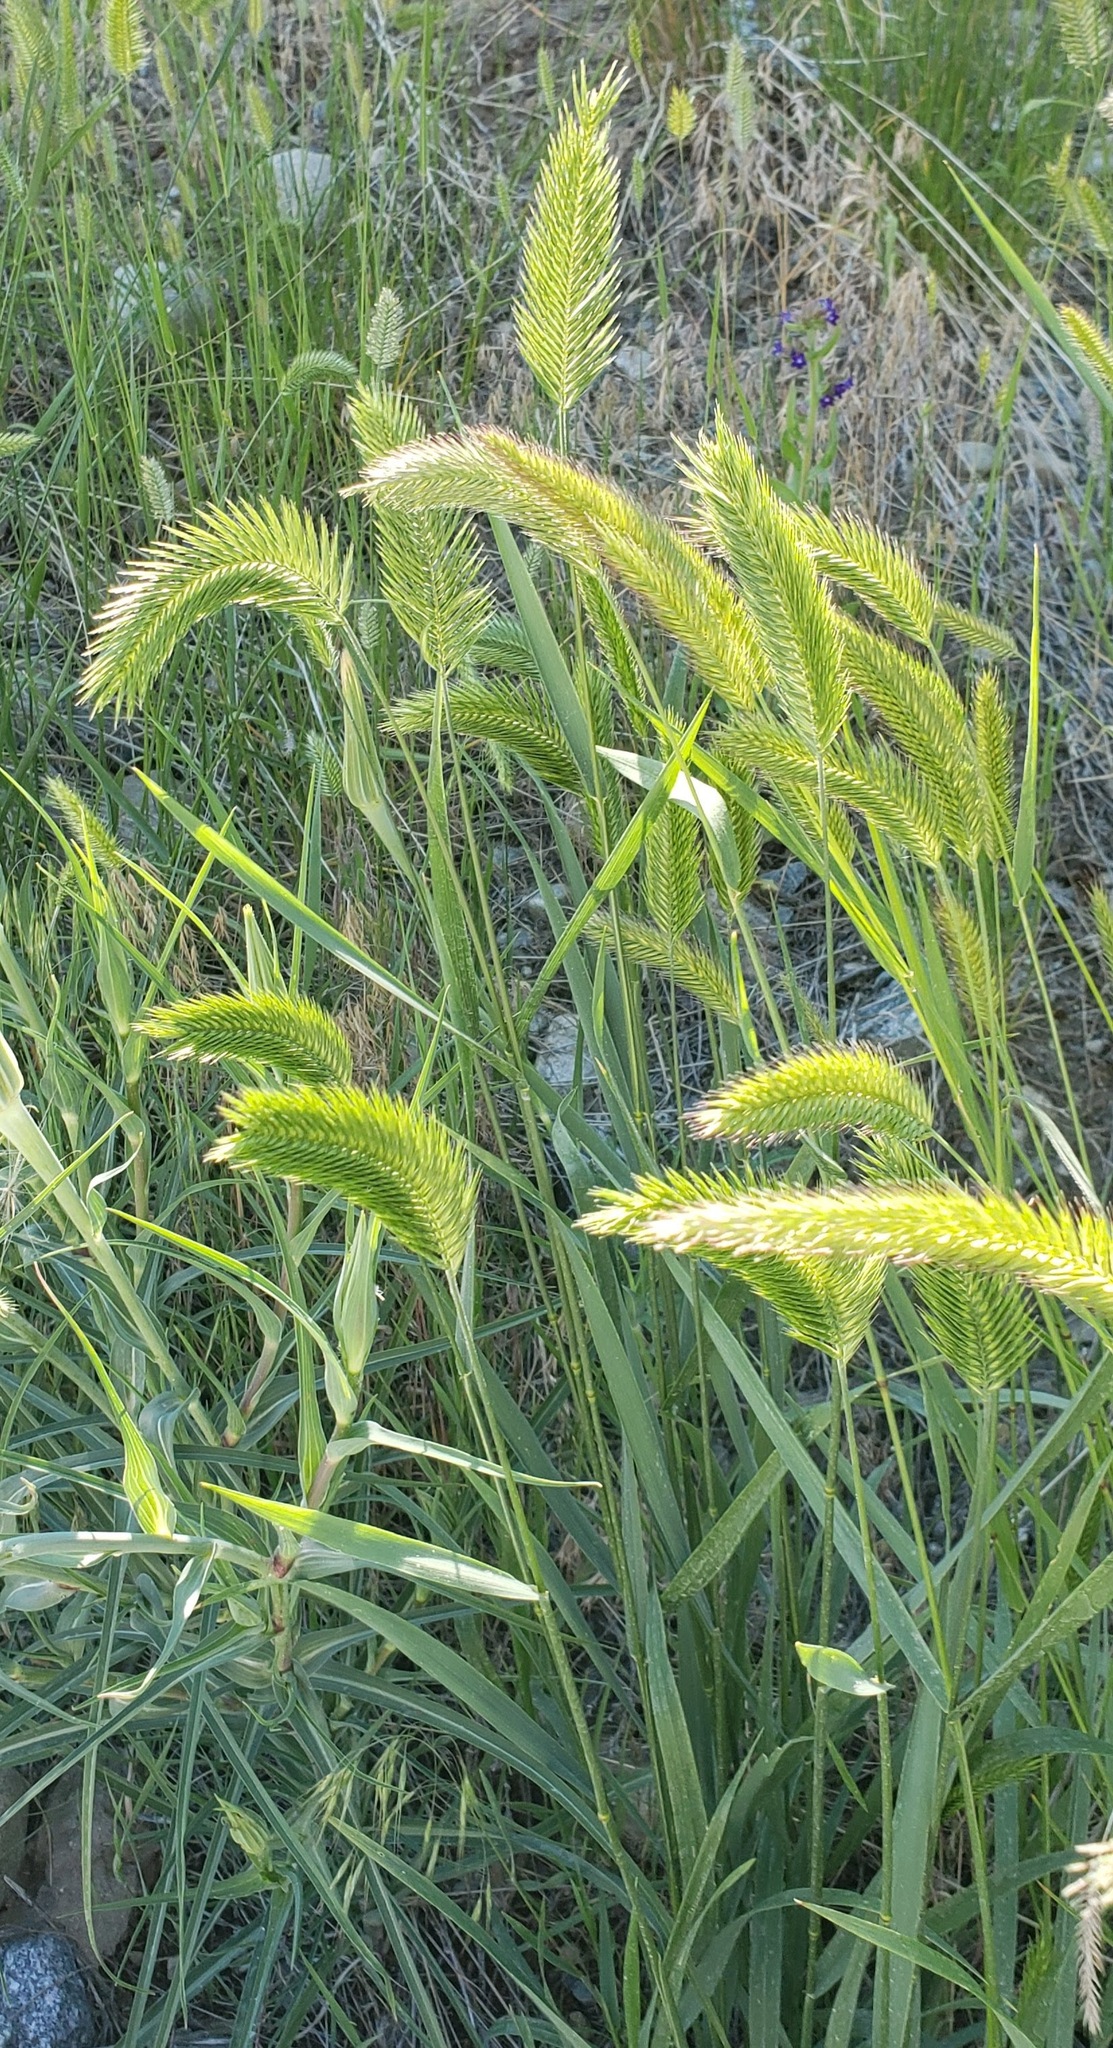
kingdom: Plantae
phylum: Tracheophyta
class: Liliopsida
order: Poales
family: Poaceae
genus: Agropyron
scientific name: Agropyron cristatum
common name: Crested wheatgrass
